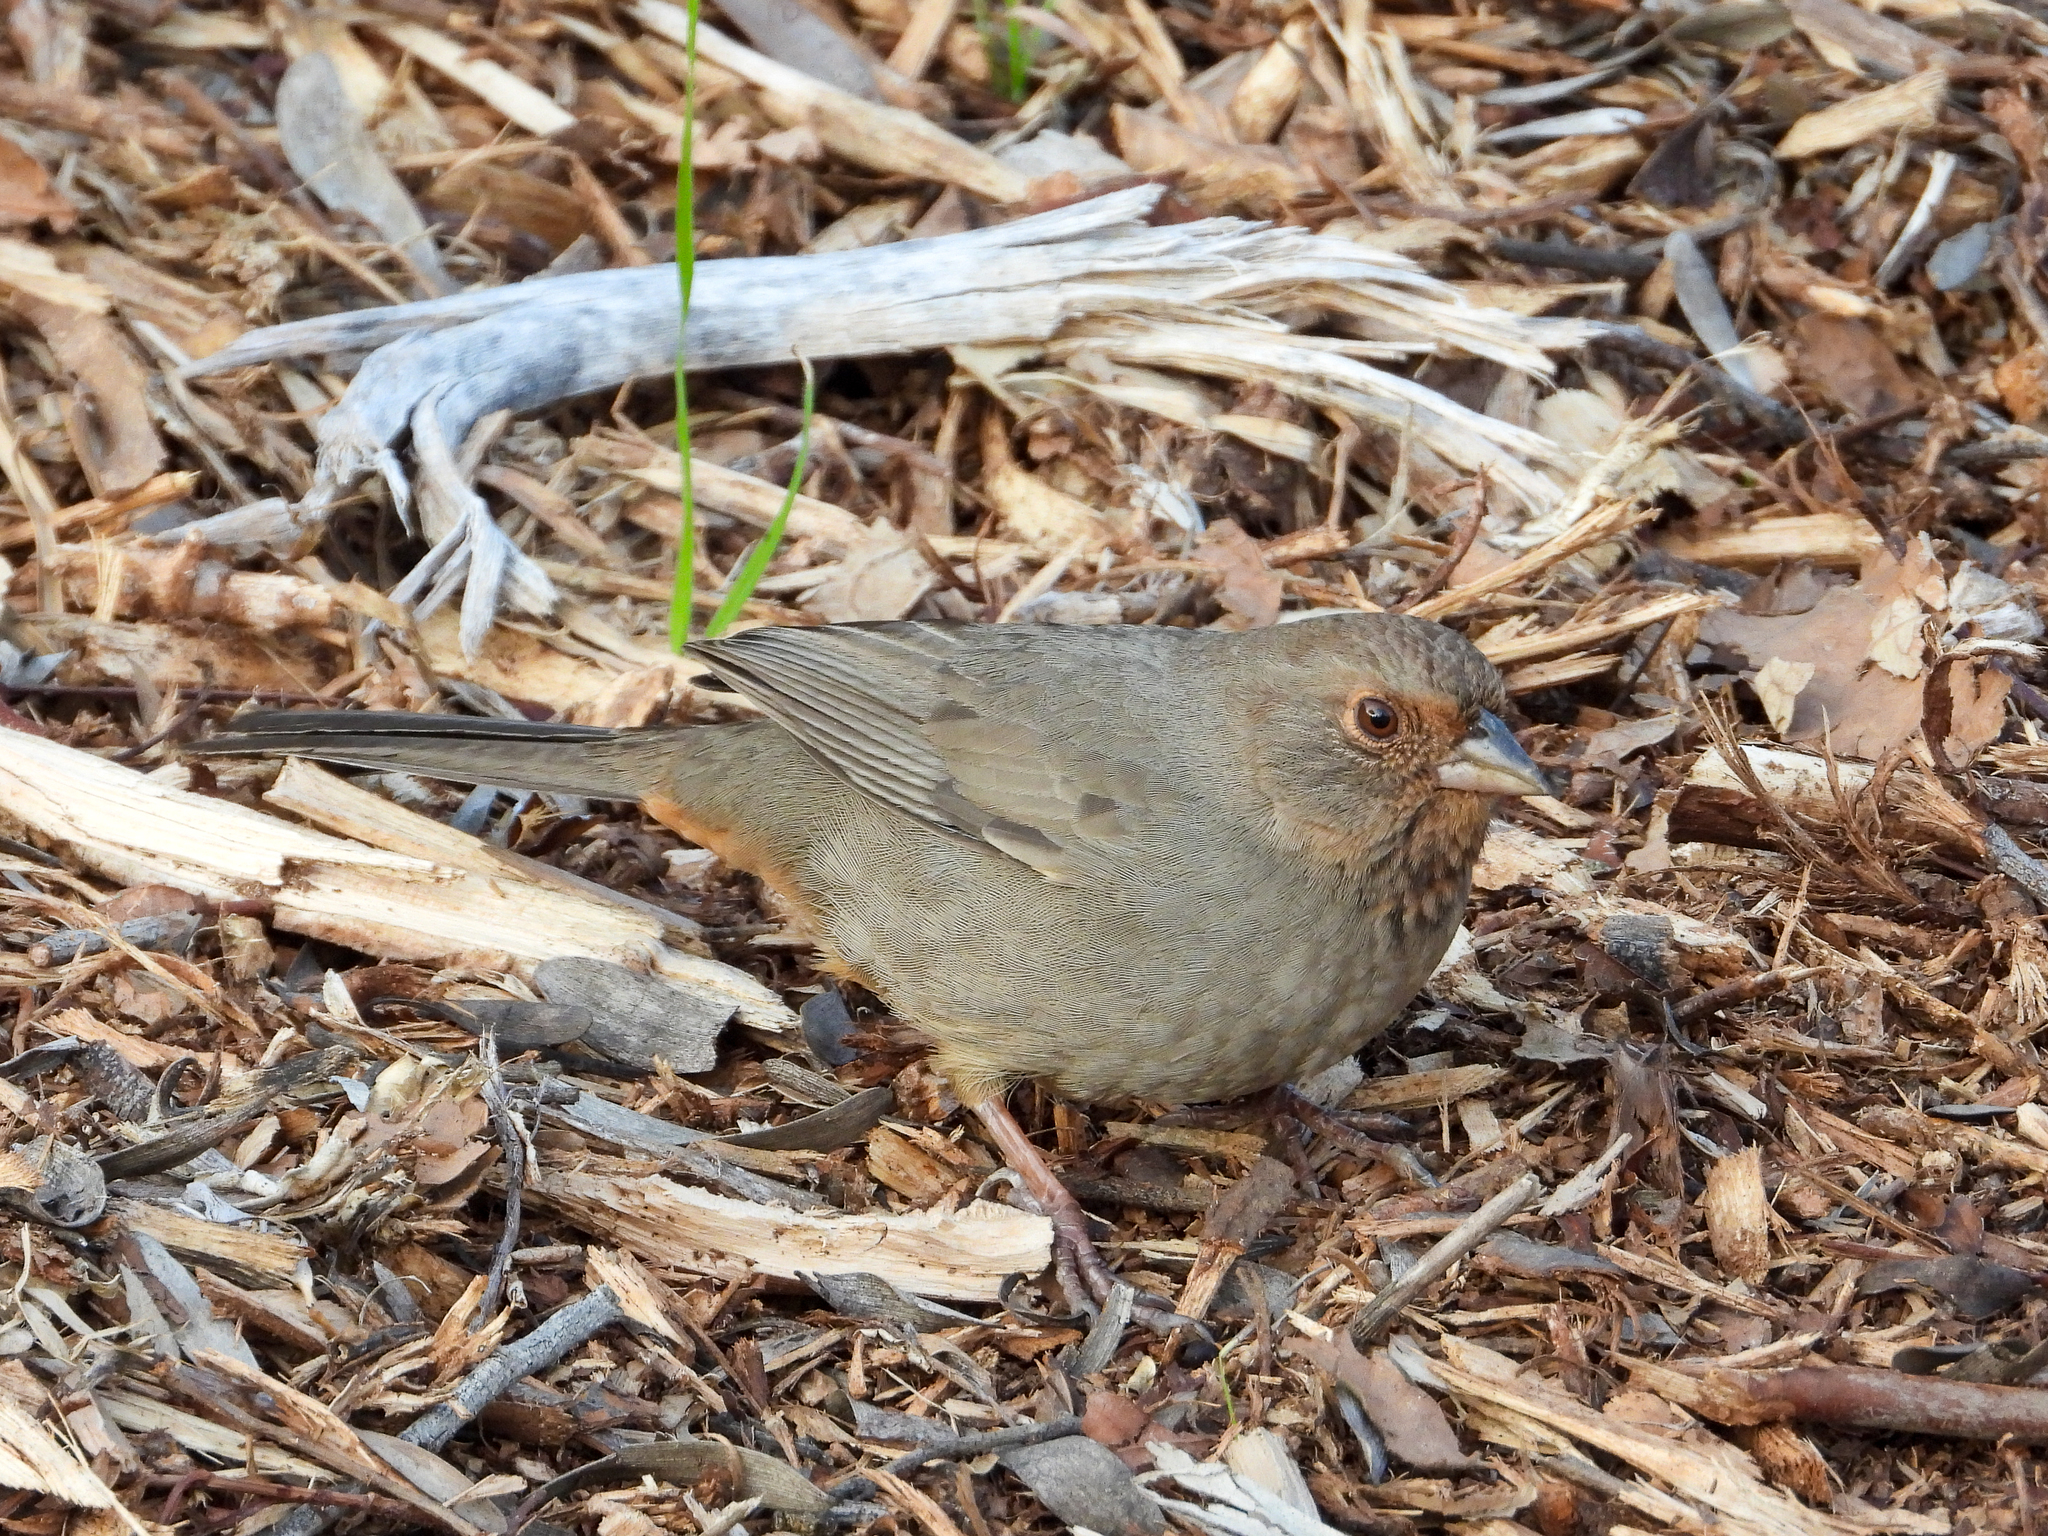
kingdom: Animalia
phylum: Chordata
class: Aves
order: Passeriformes
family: Passerellidae
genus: Melozone
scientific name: Melozone crissalis
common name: California towhee
